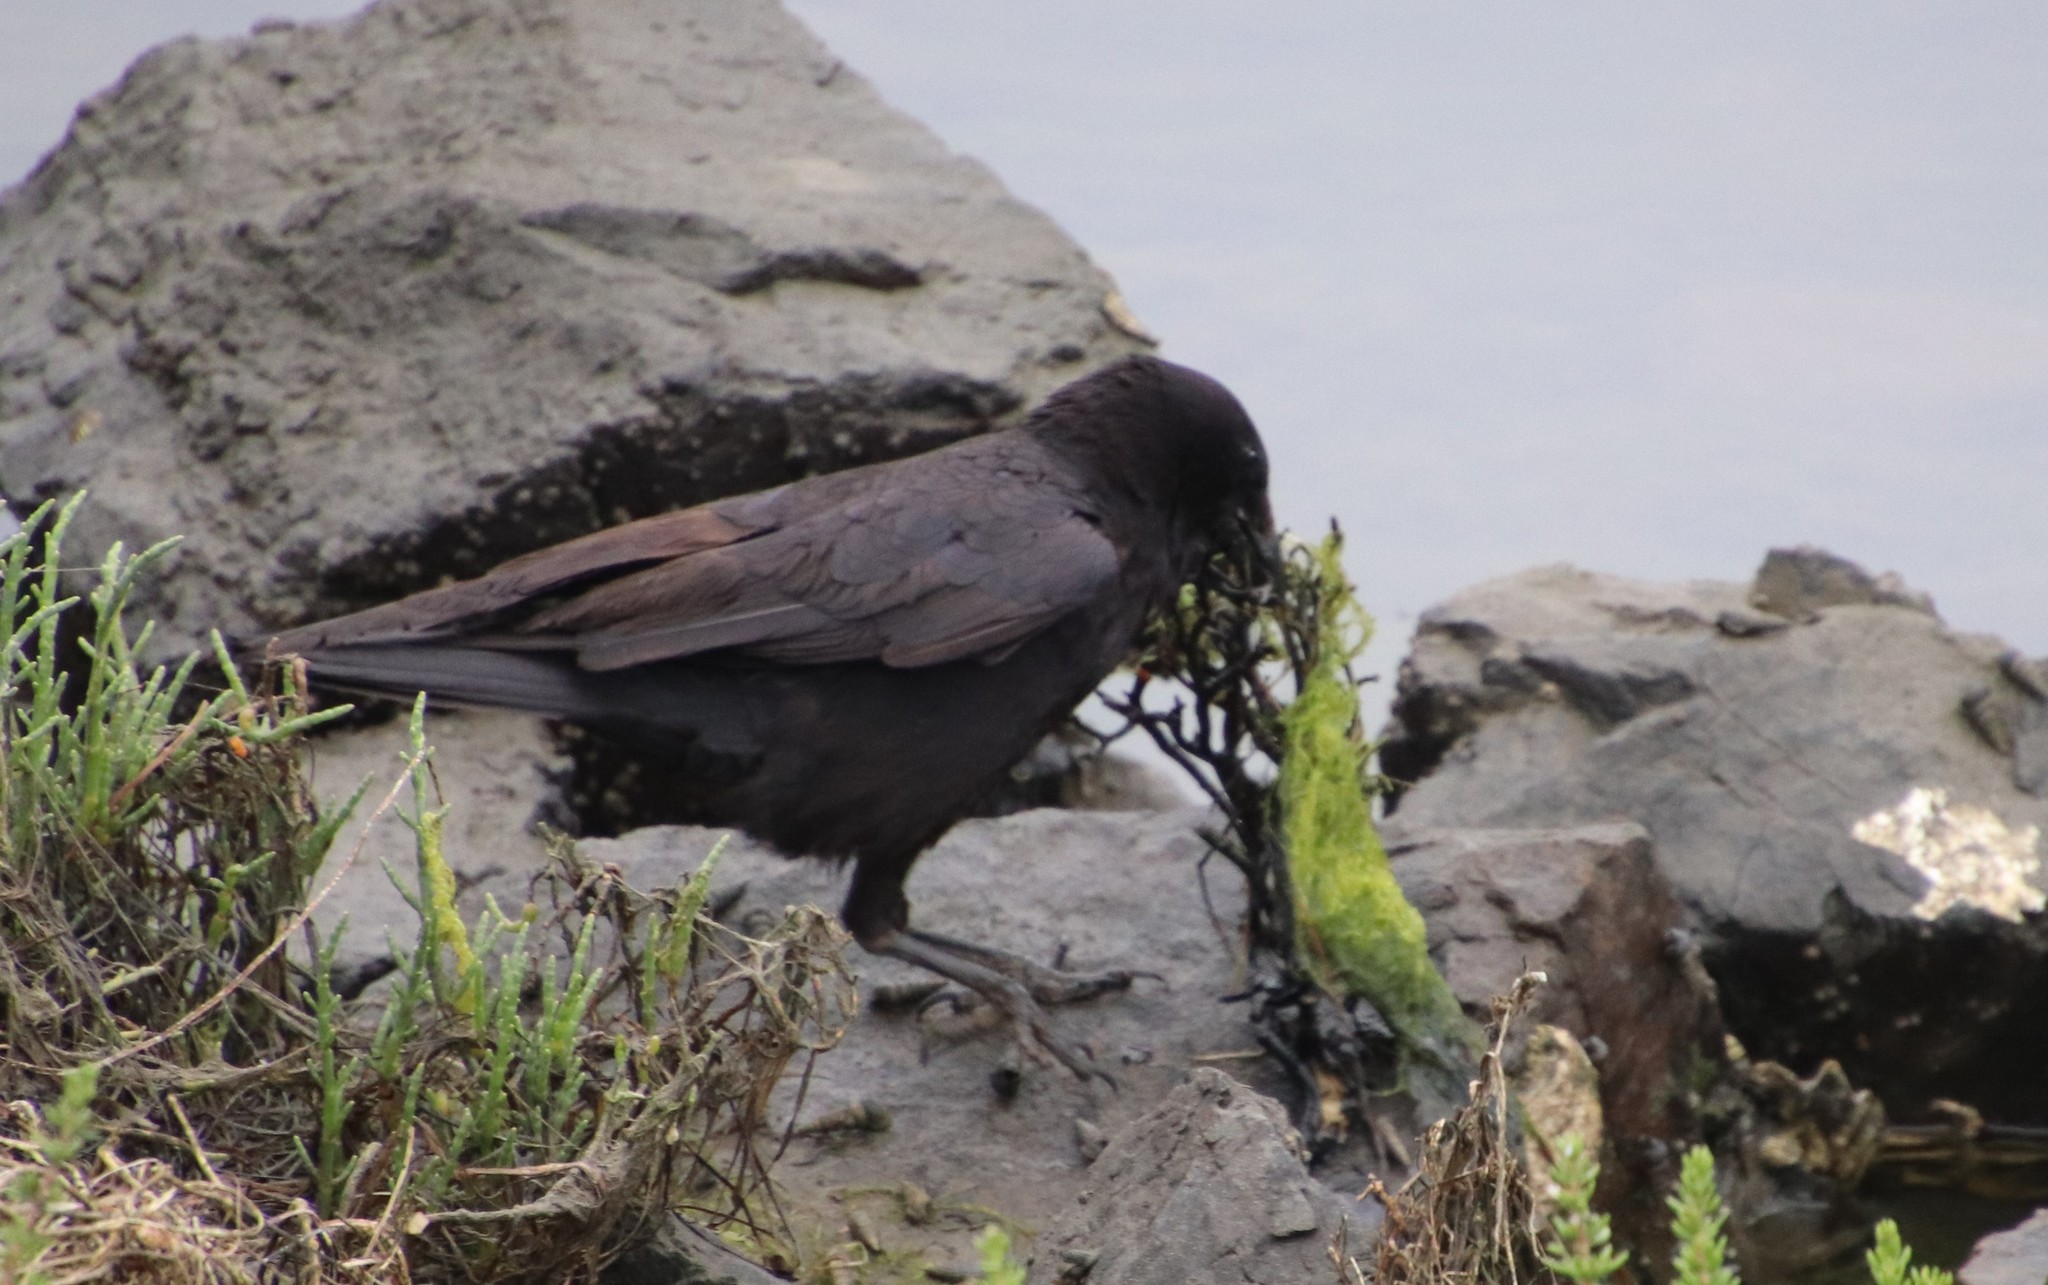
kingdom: Animalia
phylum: Chordata
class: Aves
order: Passeriformes
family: Corvidae
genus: Corvus
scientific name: Corvus brachyrhynchos
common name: American crow
